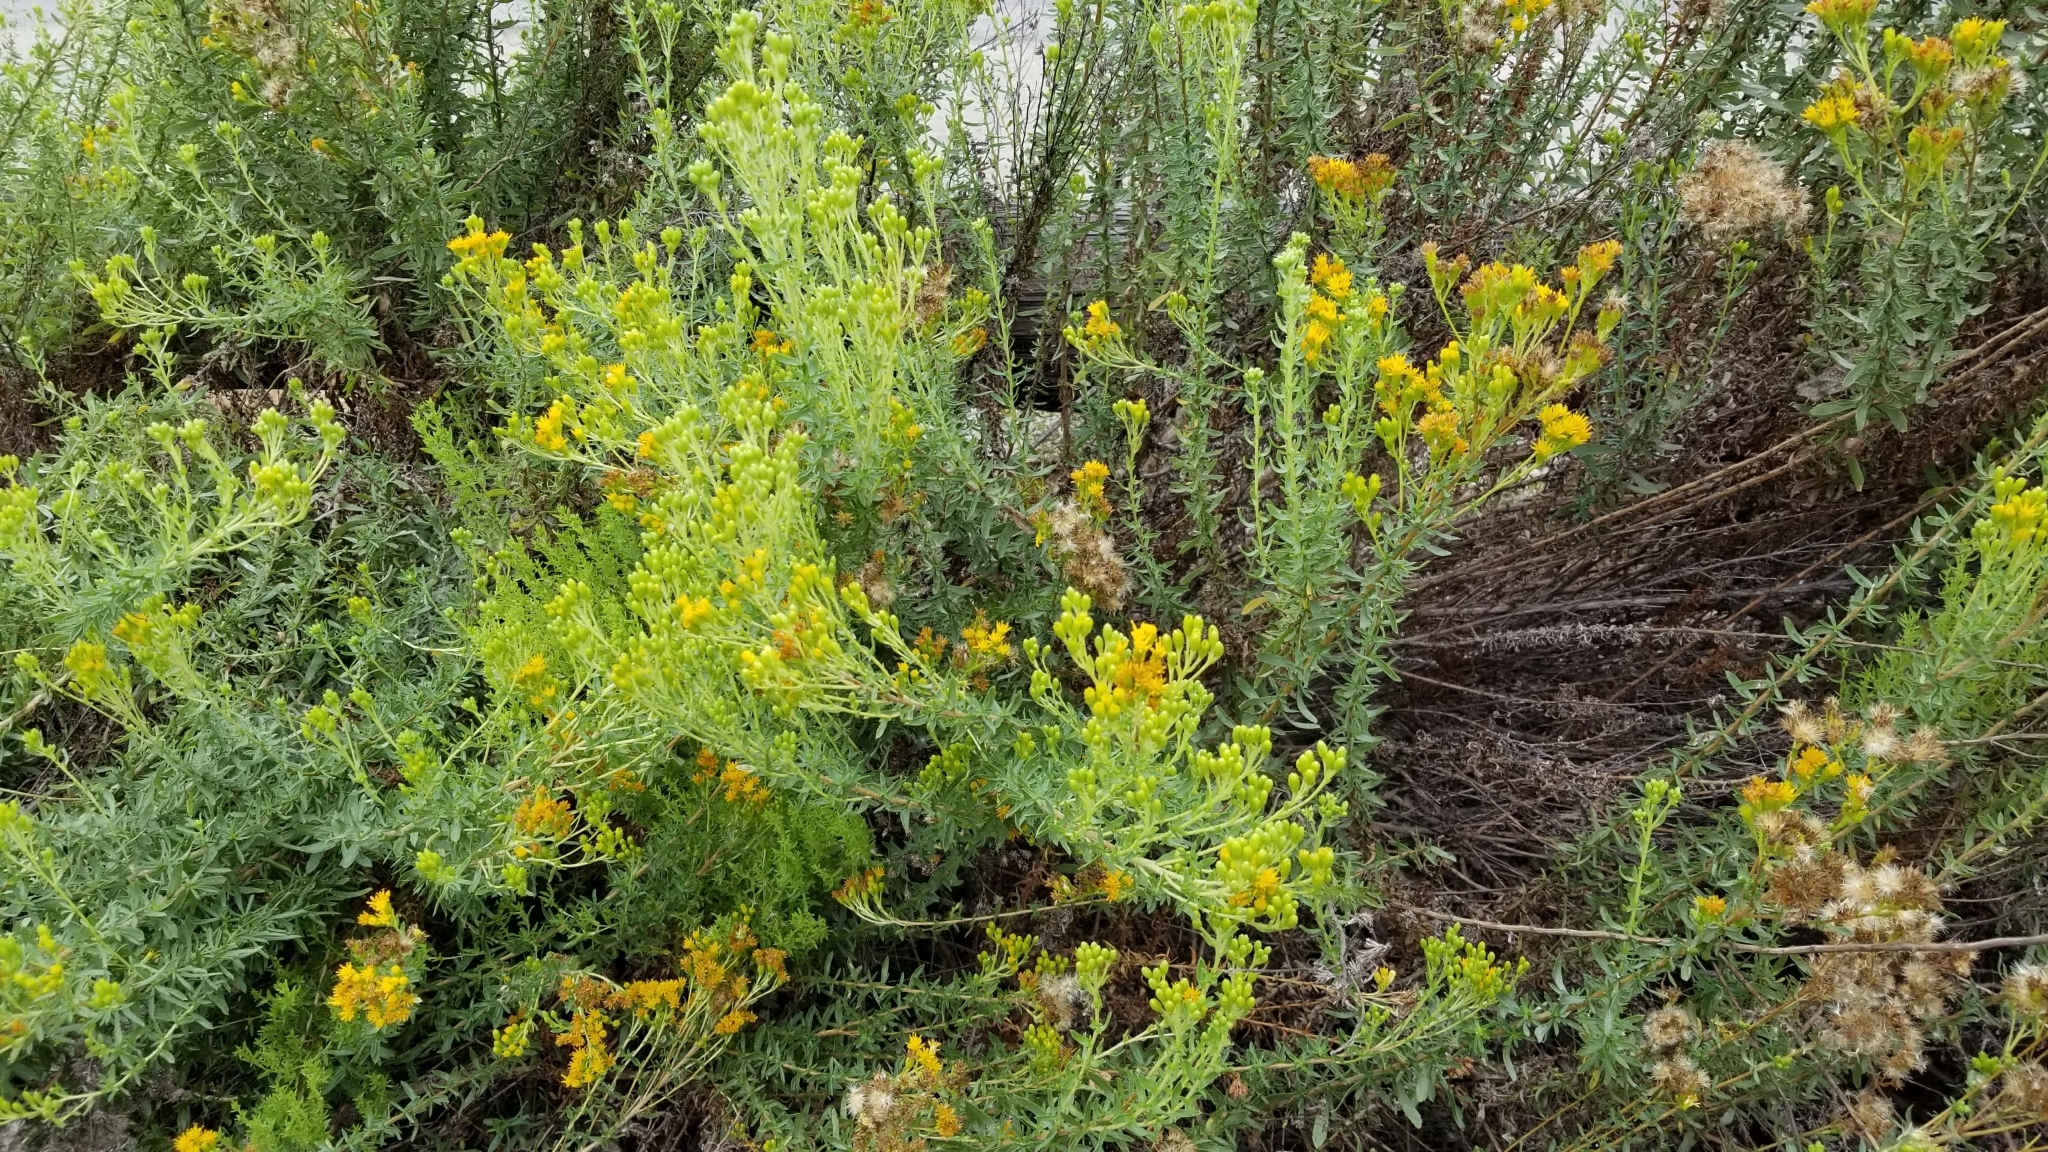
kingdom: Plantae
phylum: Tracheophyta
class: Magnoliopsida
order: Asterales
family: Asteraceae
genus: Isocoma
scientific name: Isocoma menziesii
